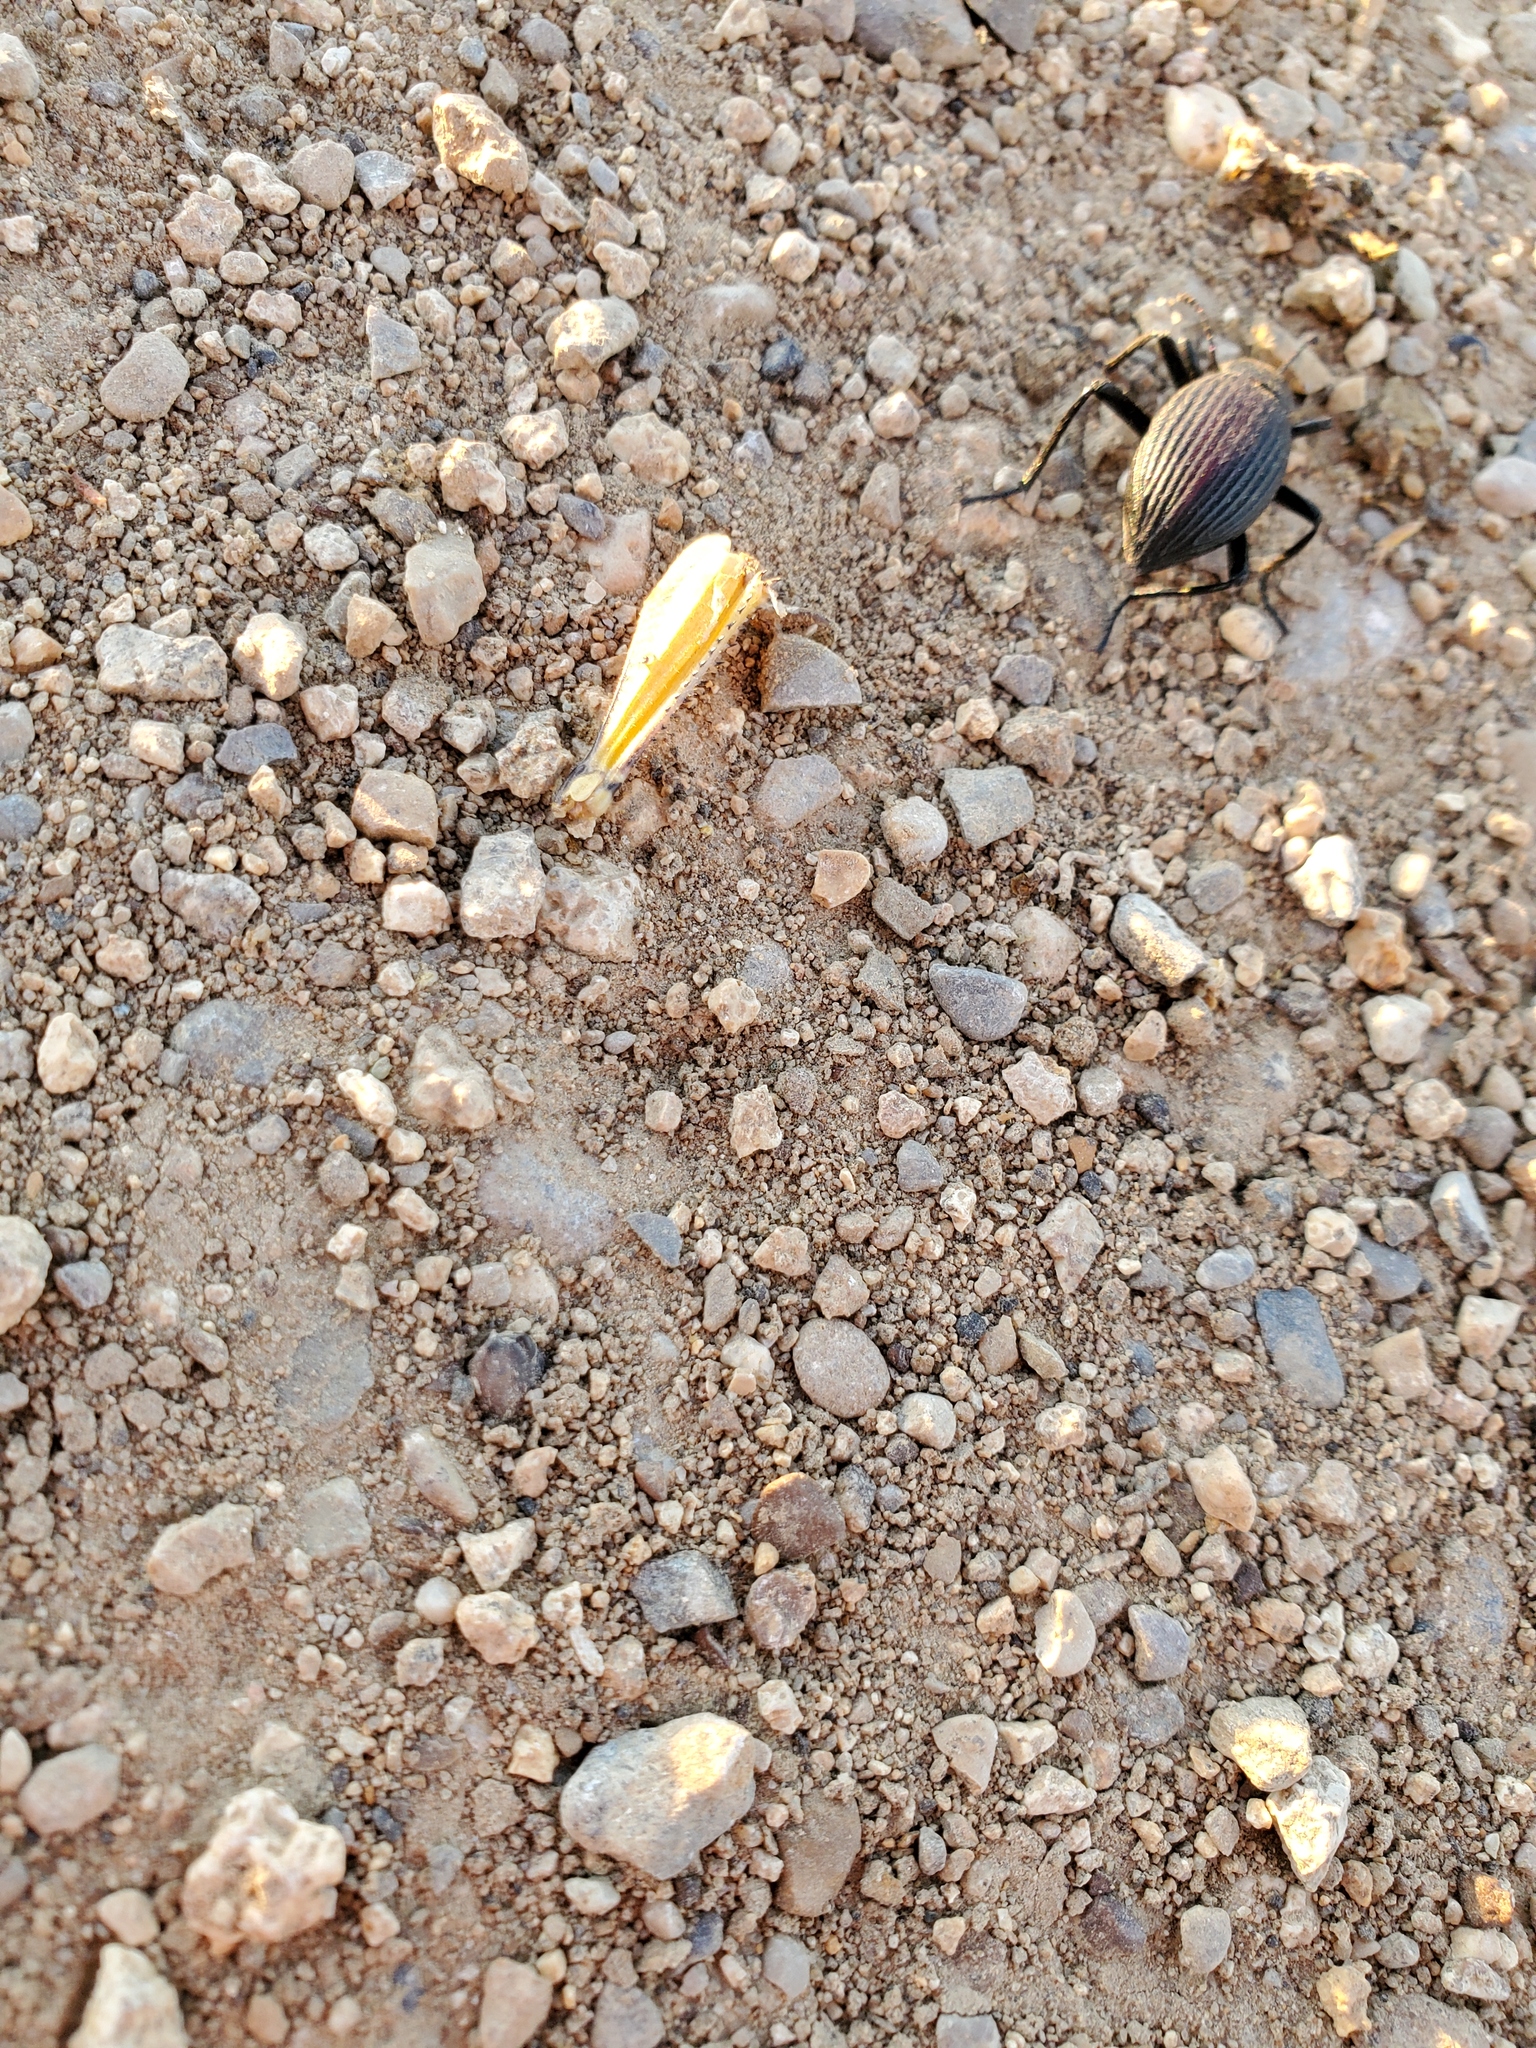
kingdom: Animalia
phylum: Arthropoda
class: Insecta
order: Coleoptera
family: Tenebrionidae
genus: Eleodes
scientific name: Eleodes hispilabris
